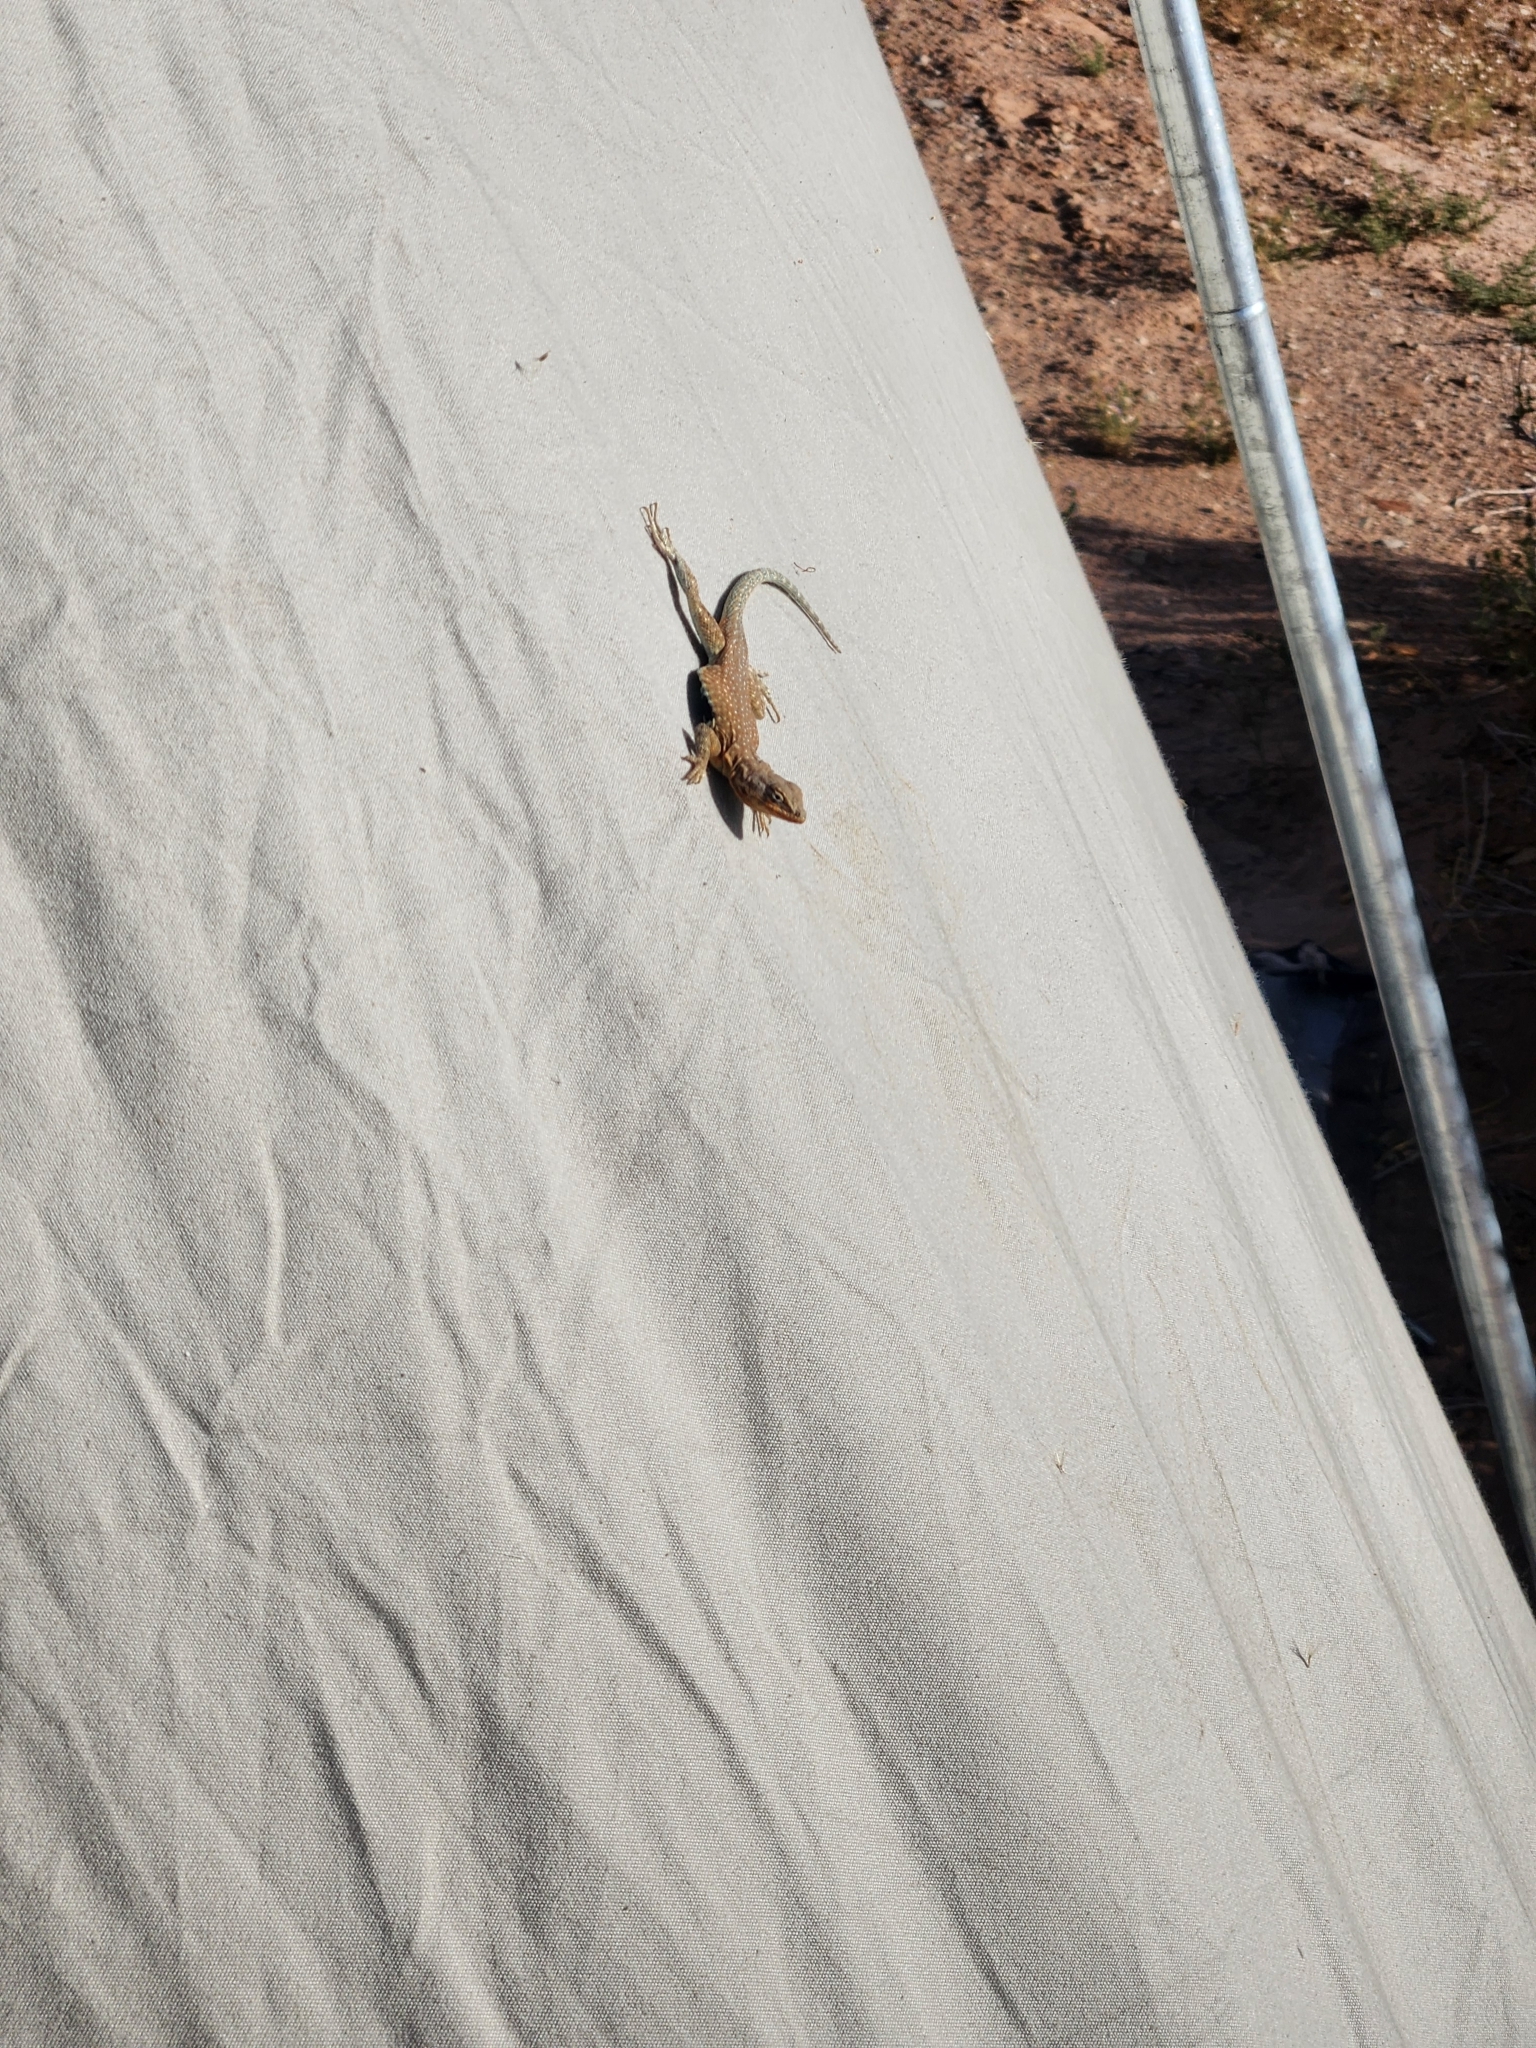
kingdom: Animalia
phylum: Chordata
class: Squamata
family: Phrynosomatidae
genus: Uta
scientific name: Uta stansburiana
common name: Side-blotched lizard
